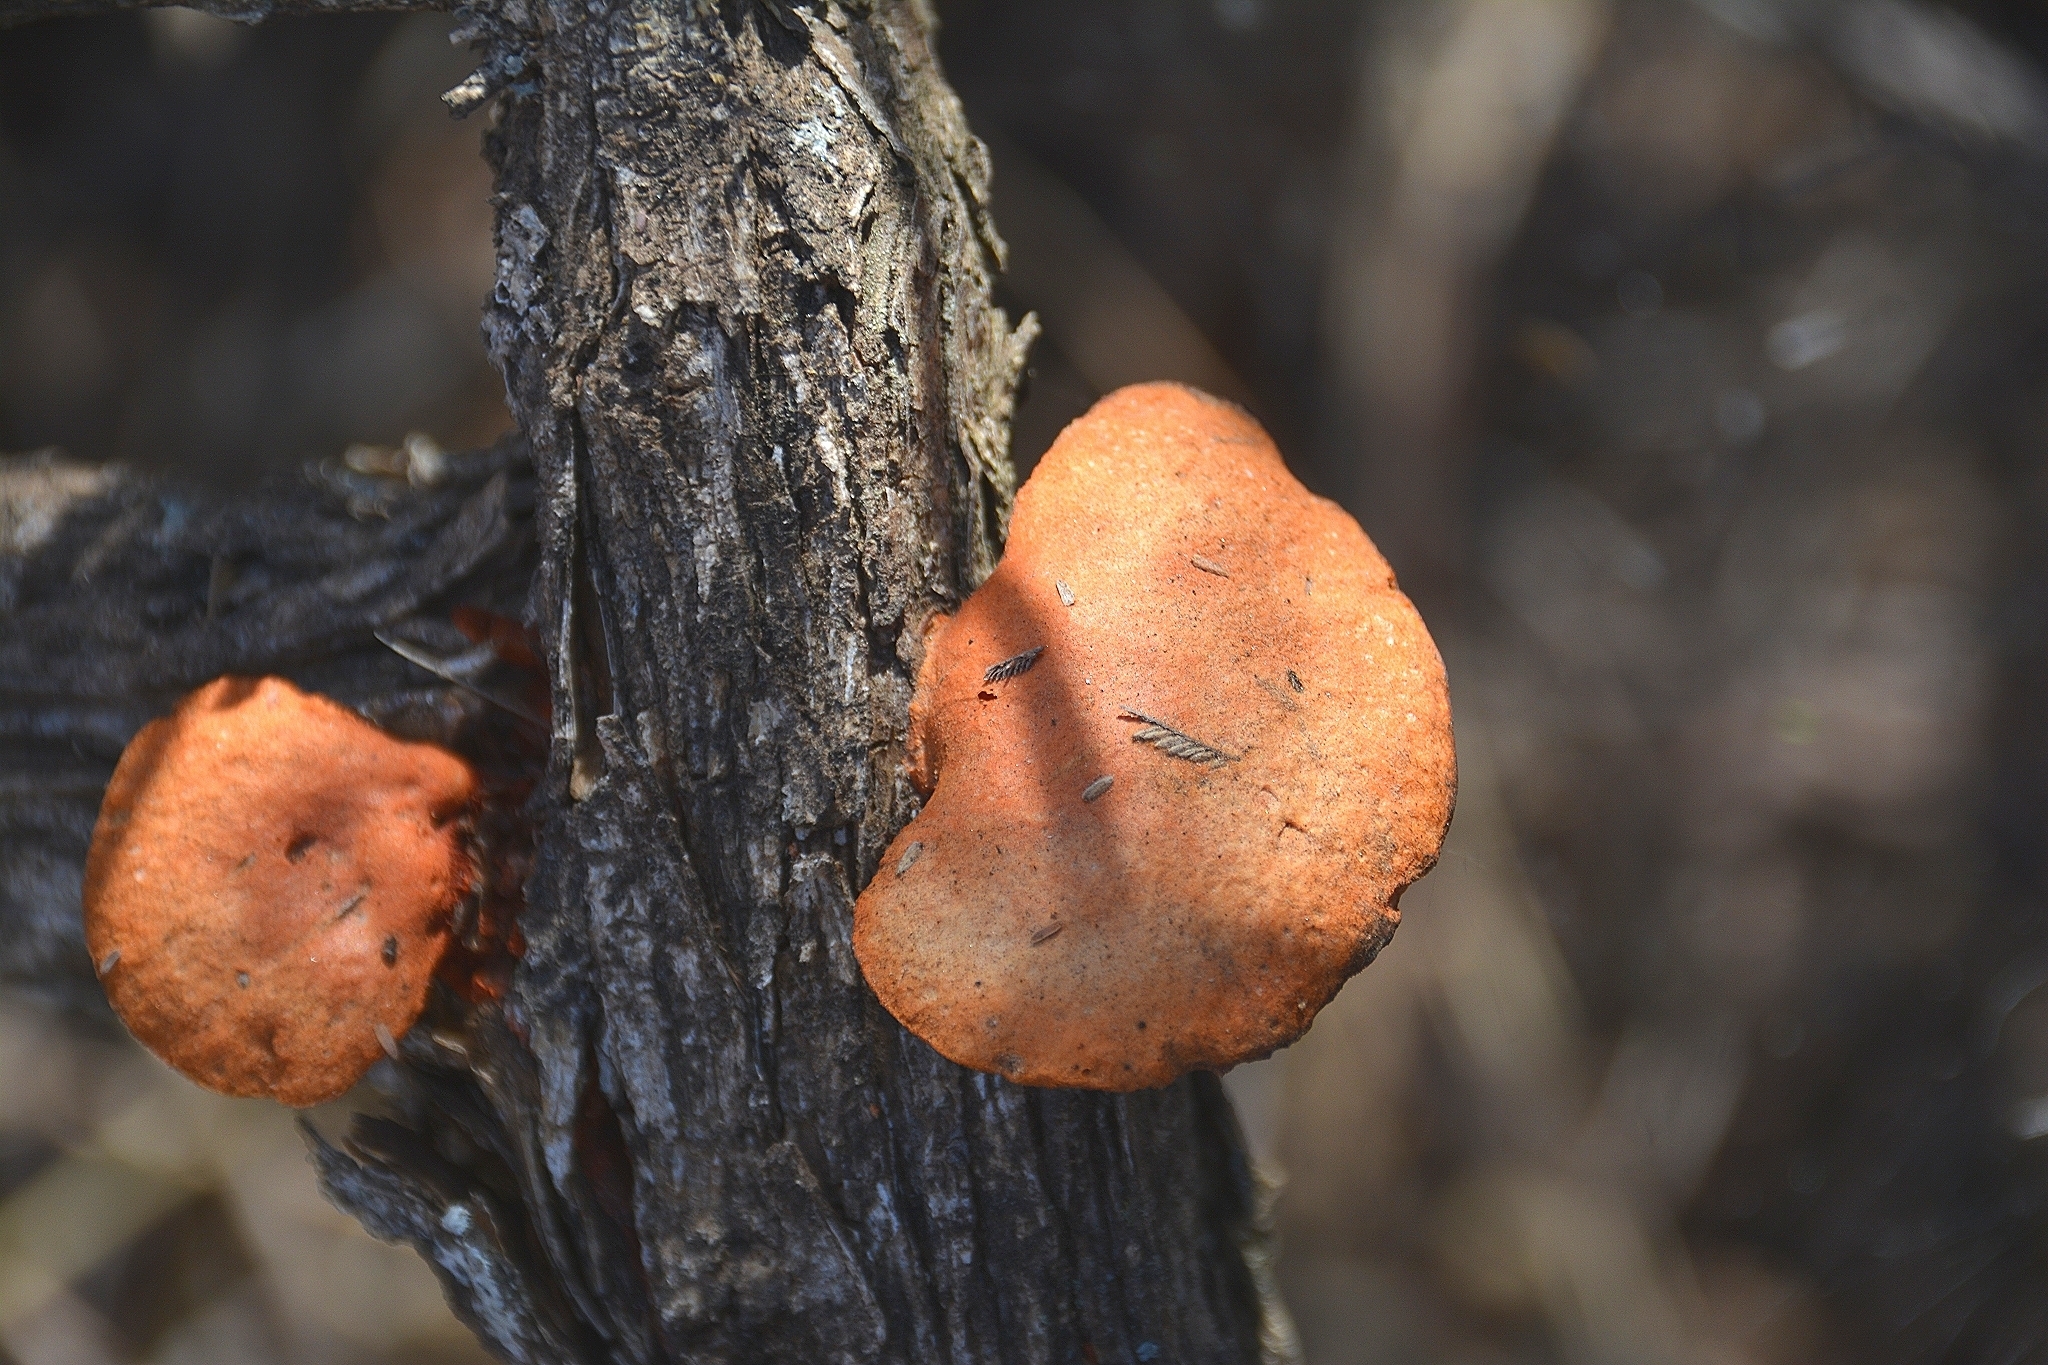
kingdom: Fungi
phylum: Basidiomycota
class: Agaricomycetes
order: Polyporales
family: Polyporaceae
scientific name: Polyporaceae
